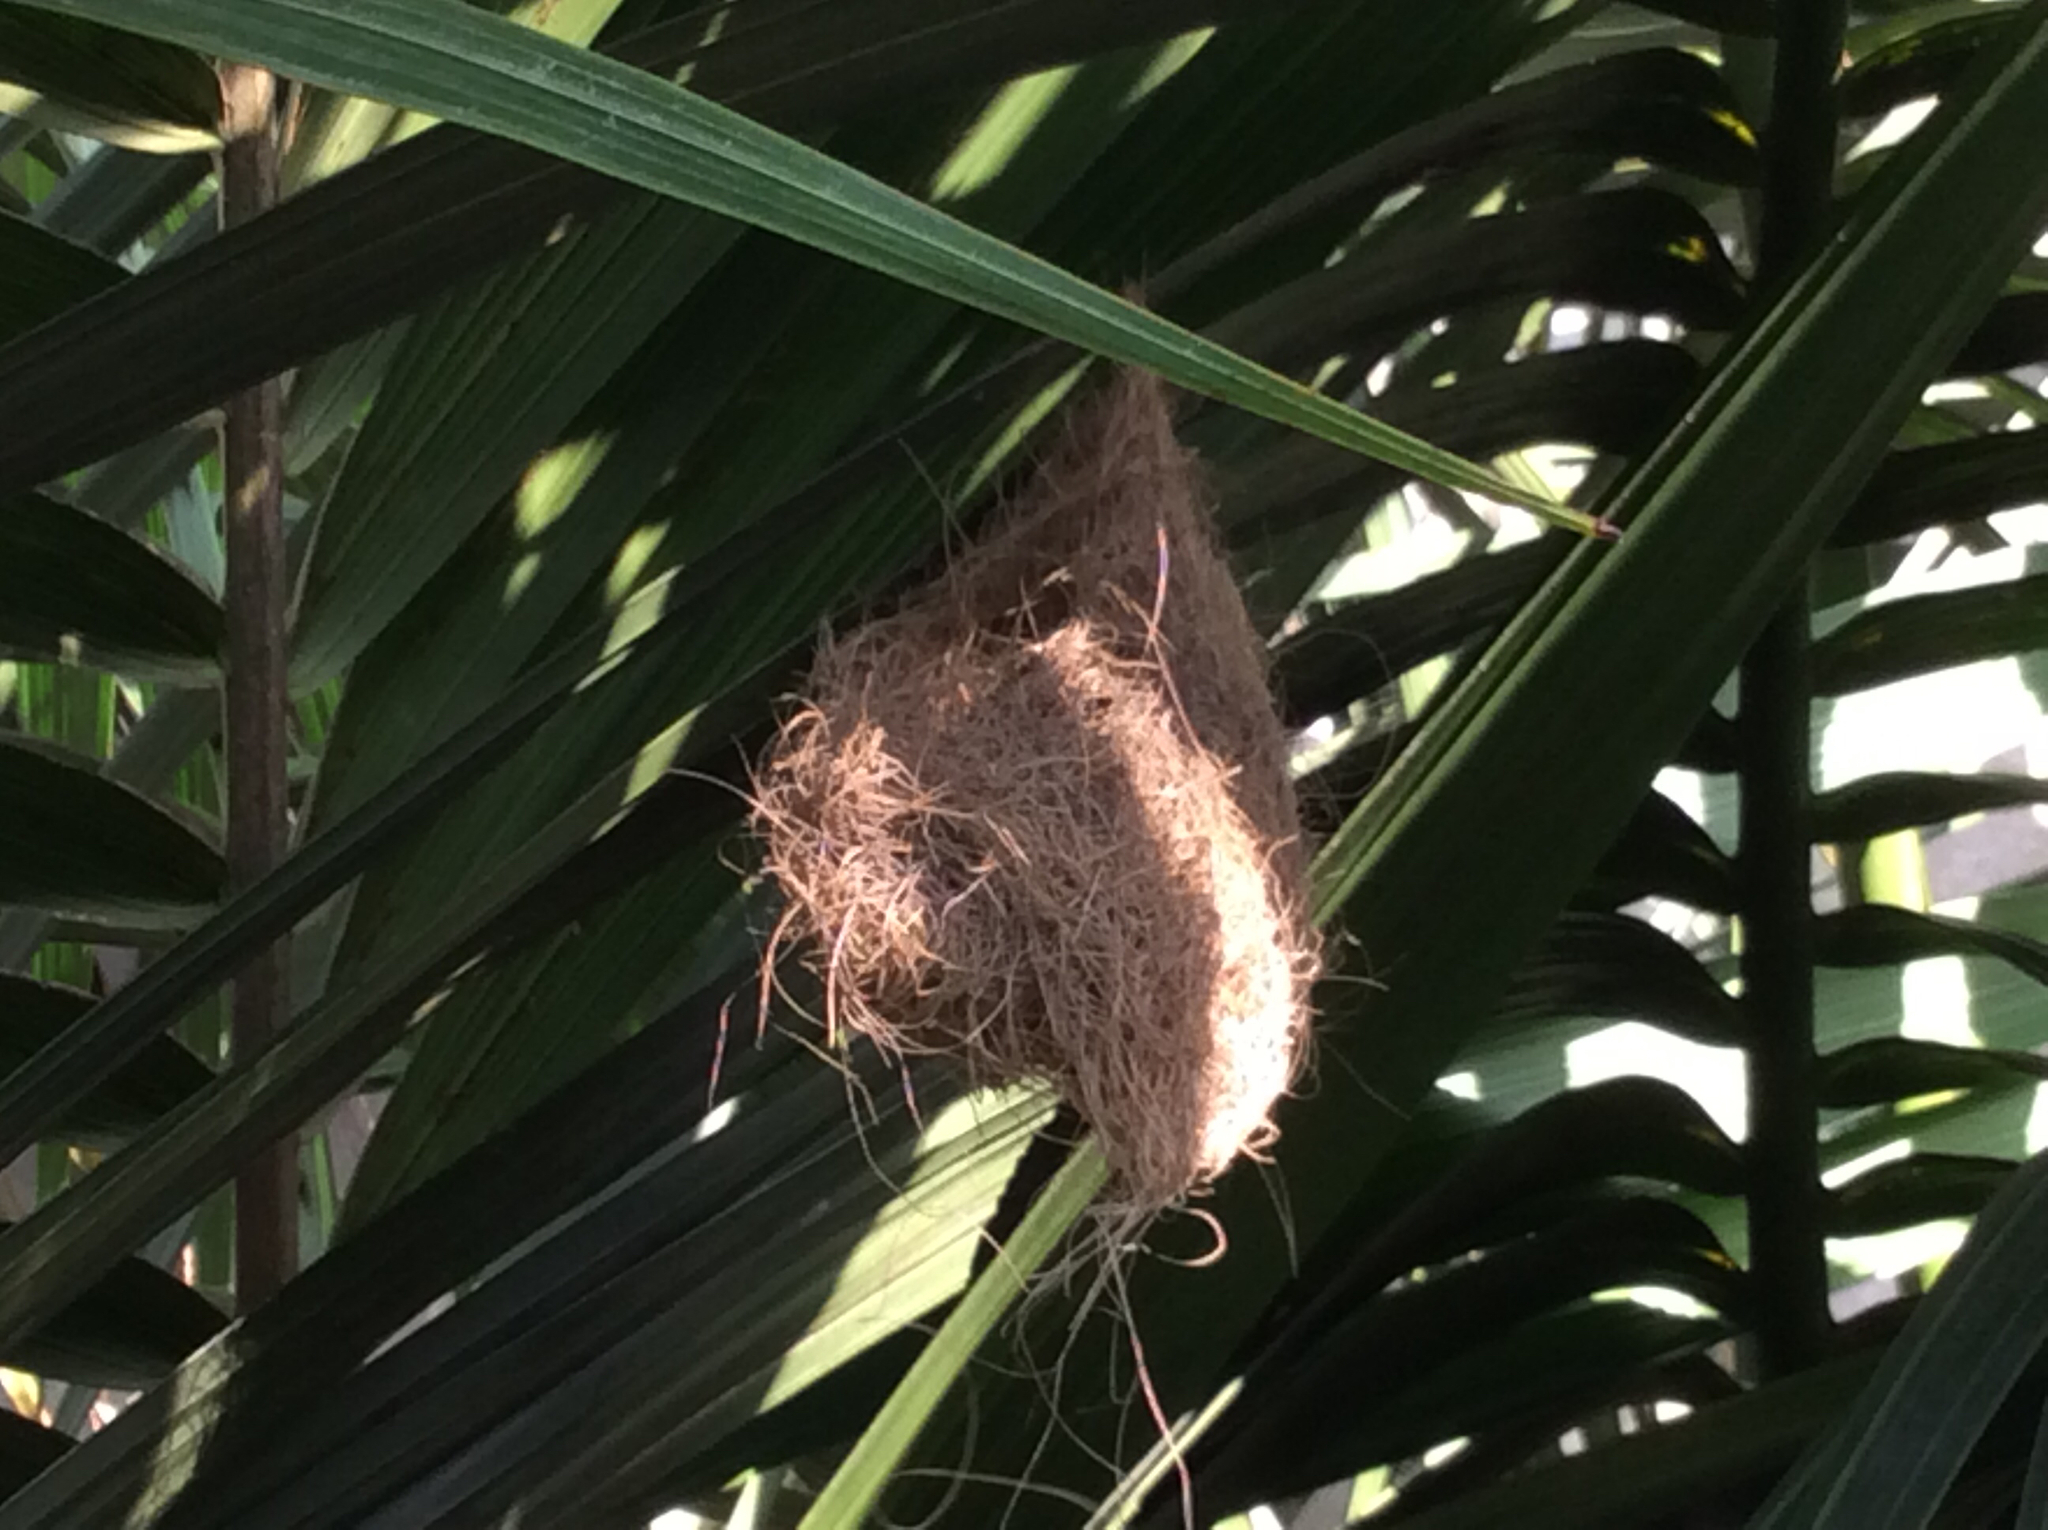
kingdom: Animalia
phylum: Chordata
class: Aves
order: Passeriformes
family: Icteridae
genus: Icterus
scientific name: Icterus cucullatus
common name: Hooded oriole
